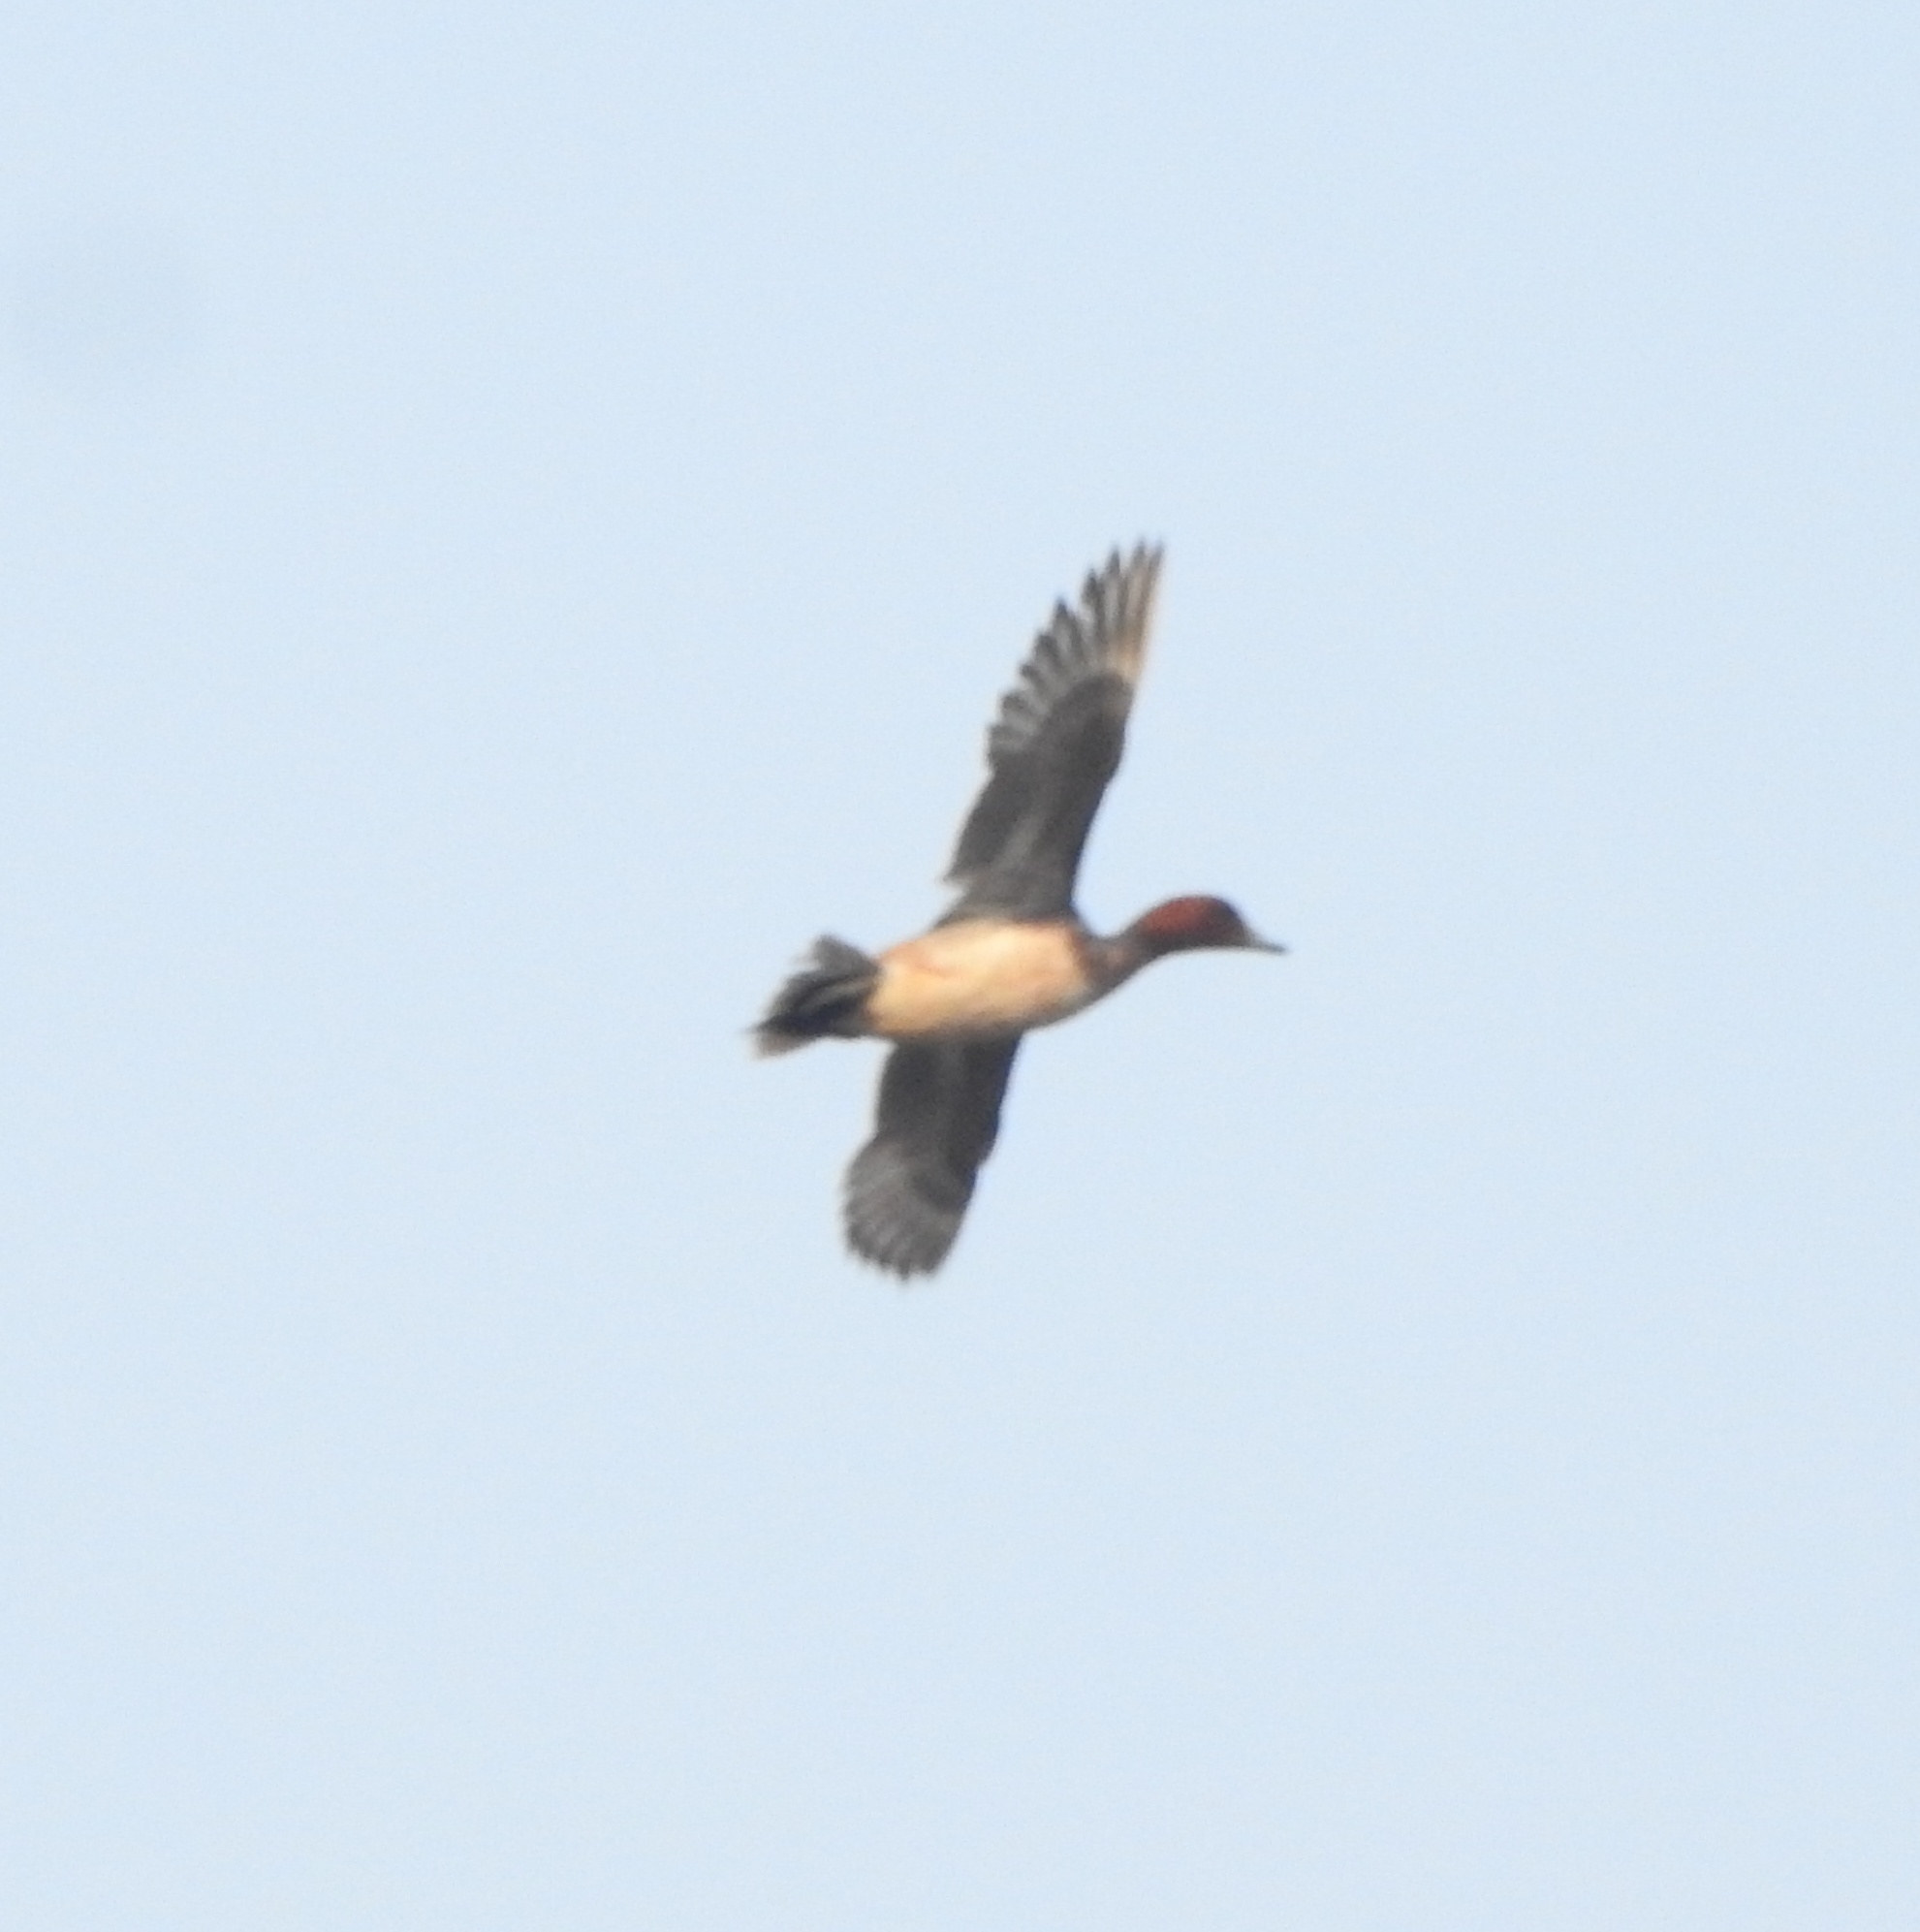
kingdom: Animalia
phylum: Chordata
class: Aves
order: Anseriformes
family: Anatidae
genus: Mareca
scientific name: Mareca penelope
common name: Eurasian wigeon
